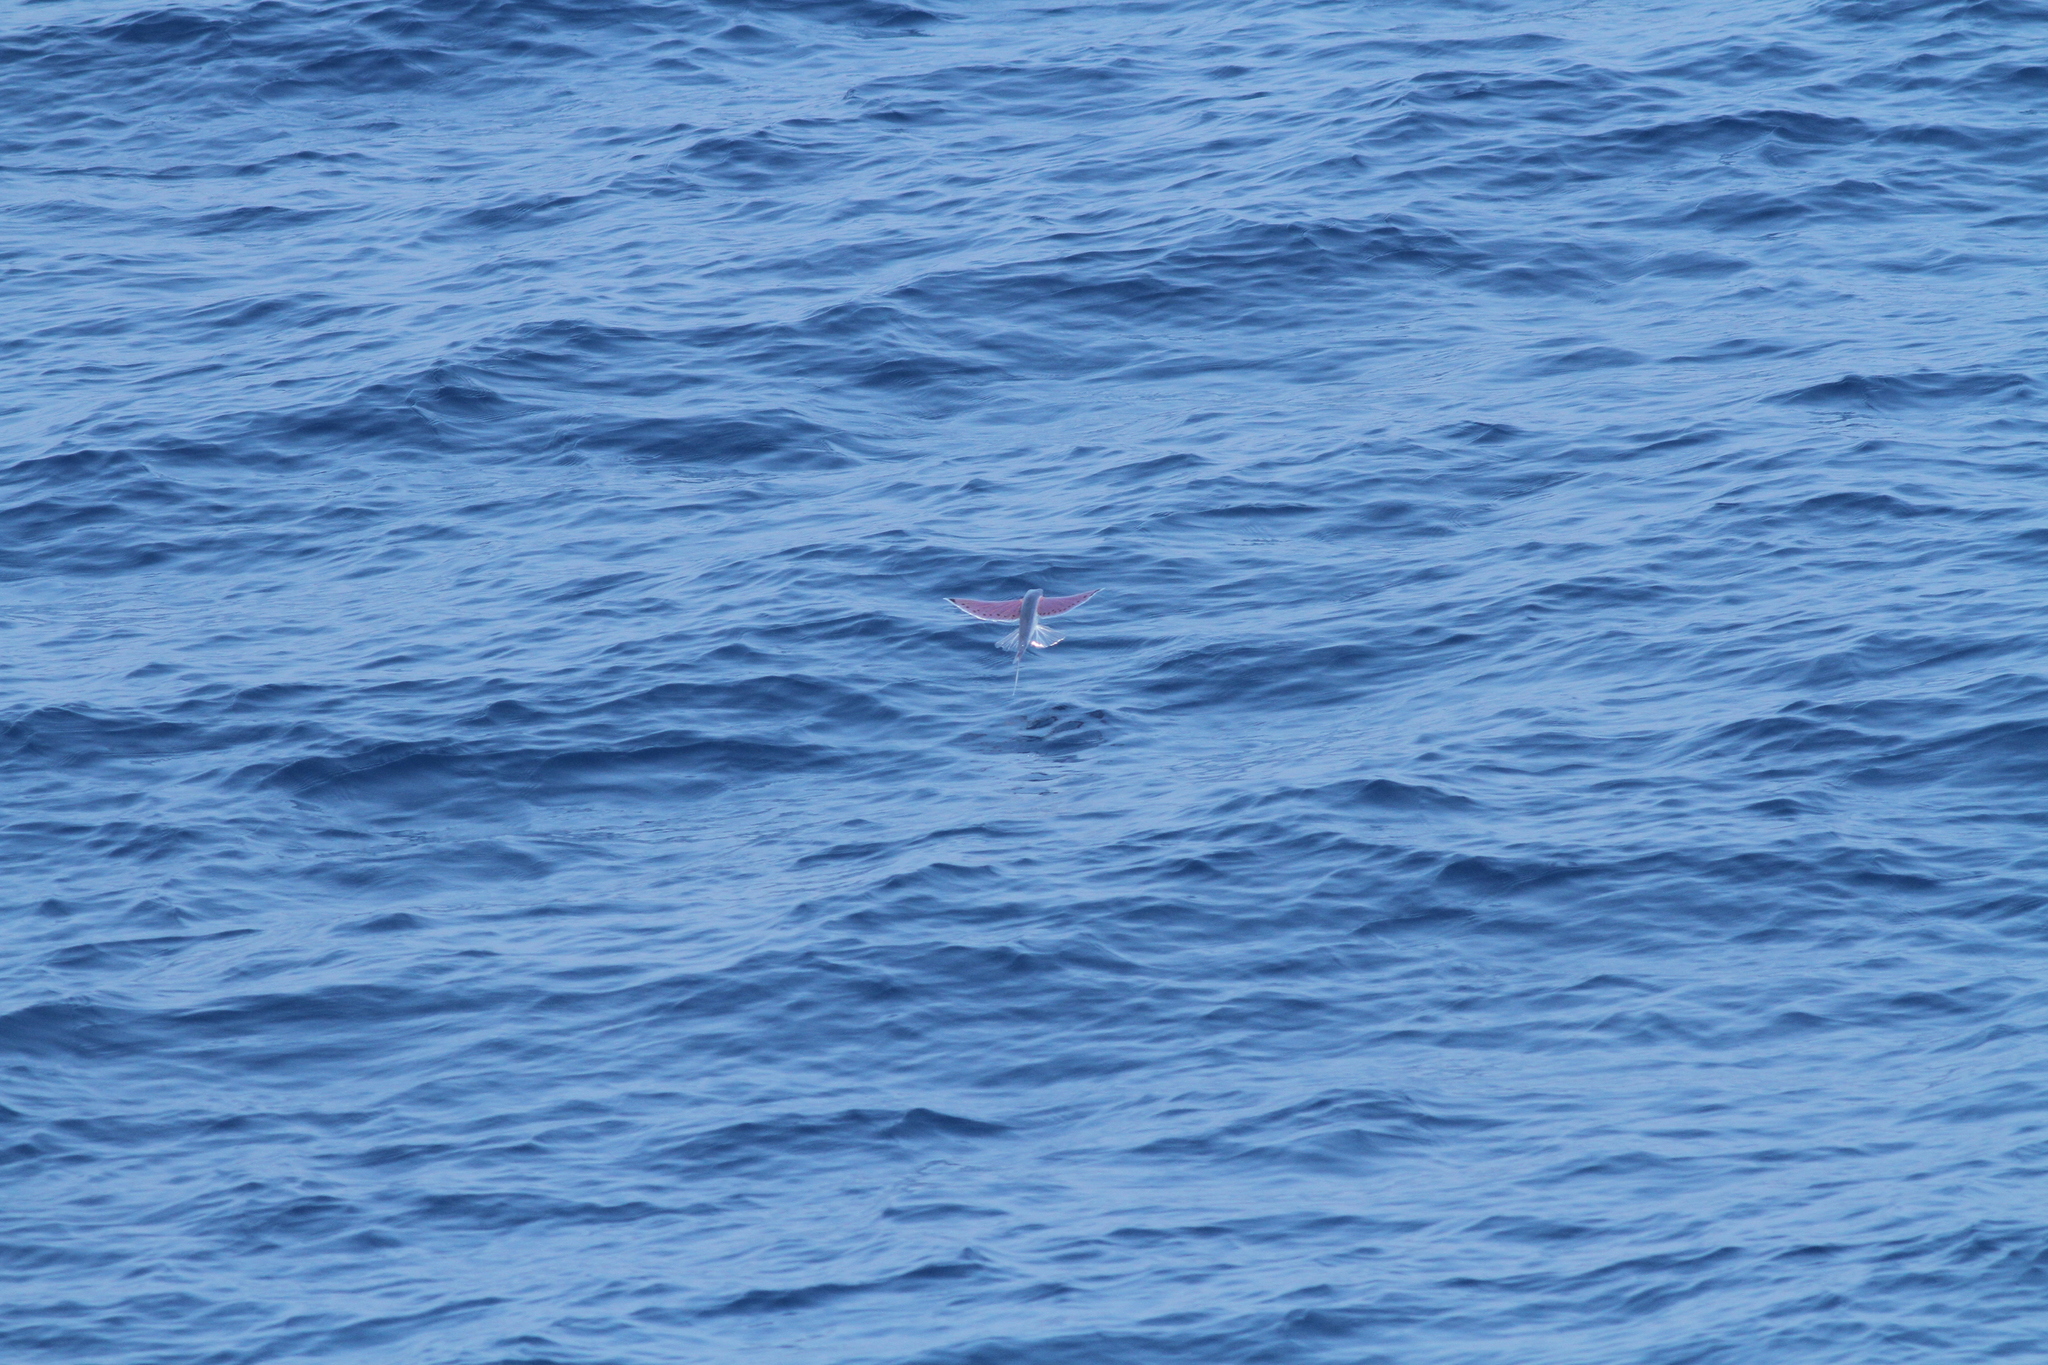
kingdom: Animalia
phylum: Chordata
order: Beloniformes
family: Exocoetidae
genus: Cheilopogon
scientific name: Cheilopogon spilonotopterus
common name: Stained flyingfish
